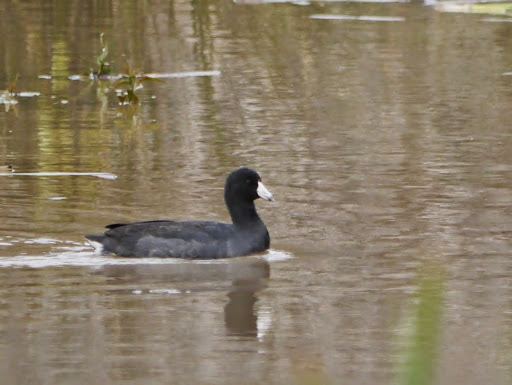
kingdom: Animalia
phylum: Chordata
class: Aves
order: Gruiformes
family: Rallidae
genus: Fulica
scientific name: Fulica americana
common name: American coot
